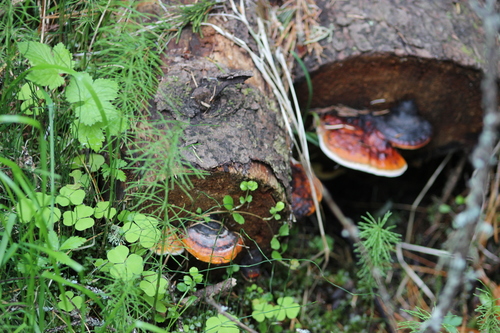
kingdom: Fungi
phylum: Basidiomycota
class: Agaricomycetes
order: Polyporales
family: Fomitopsidaceae
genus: Fomitopsis
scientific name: Fomitopsis pinicola
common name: Red-belted bracket
